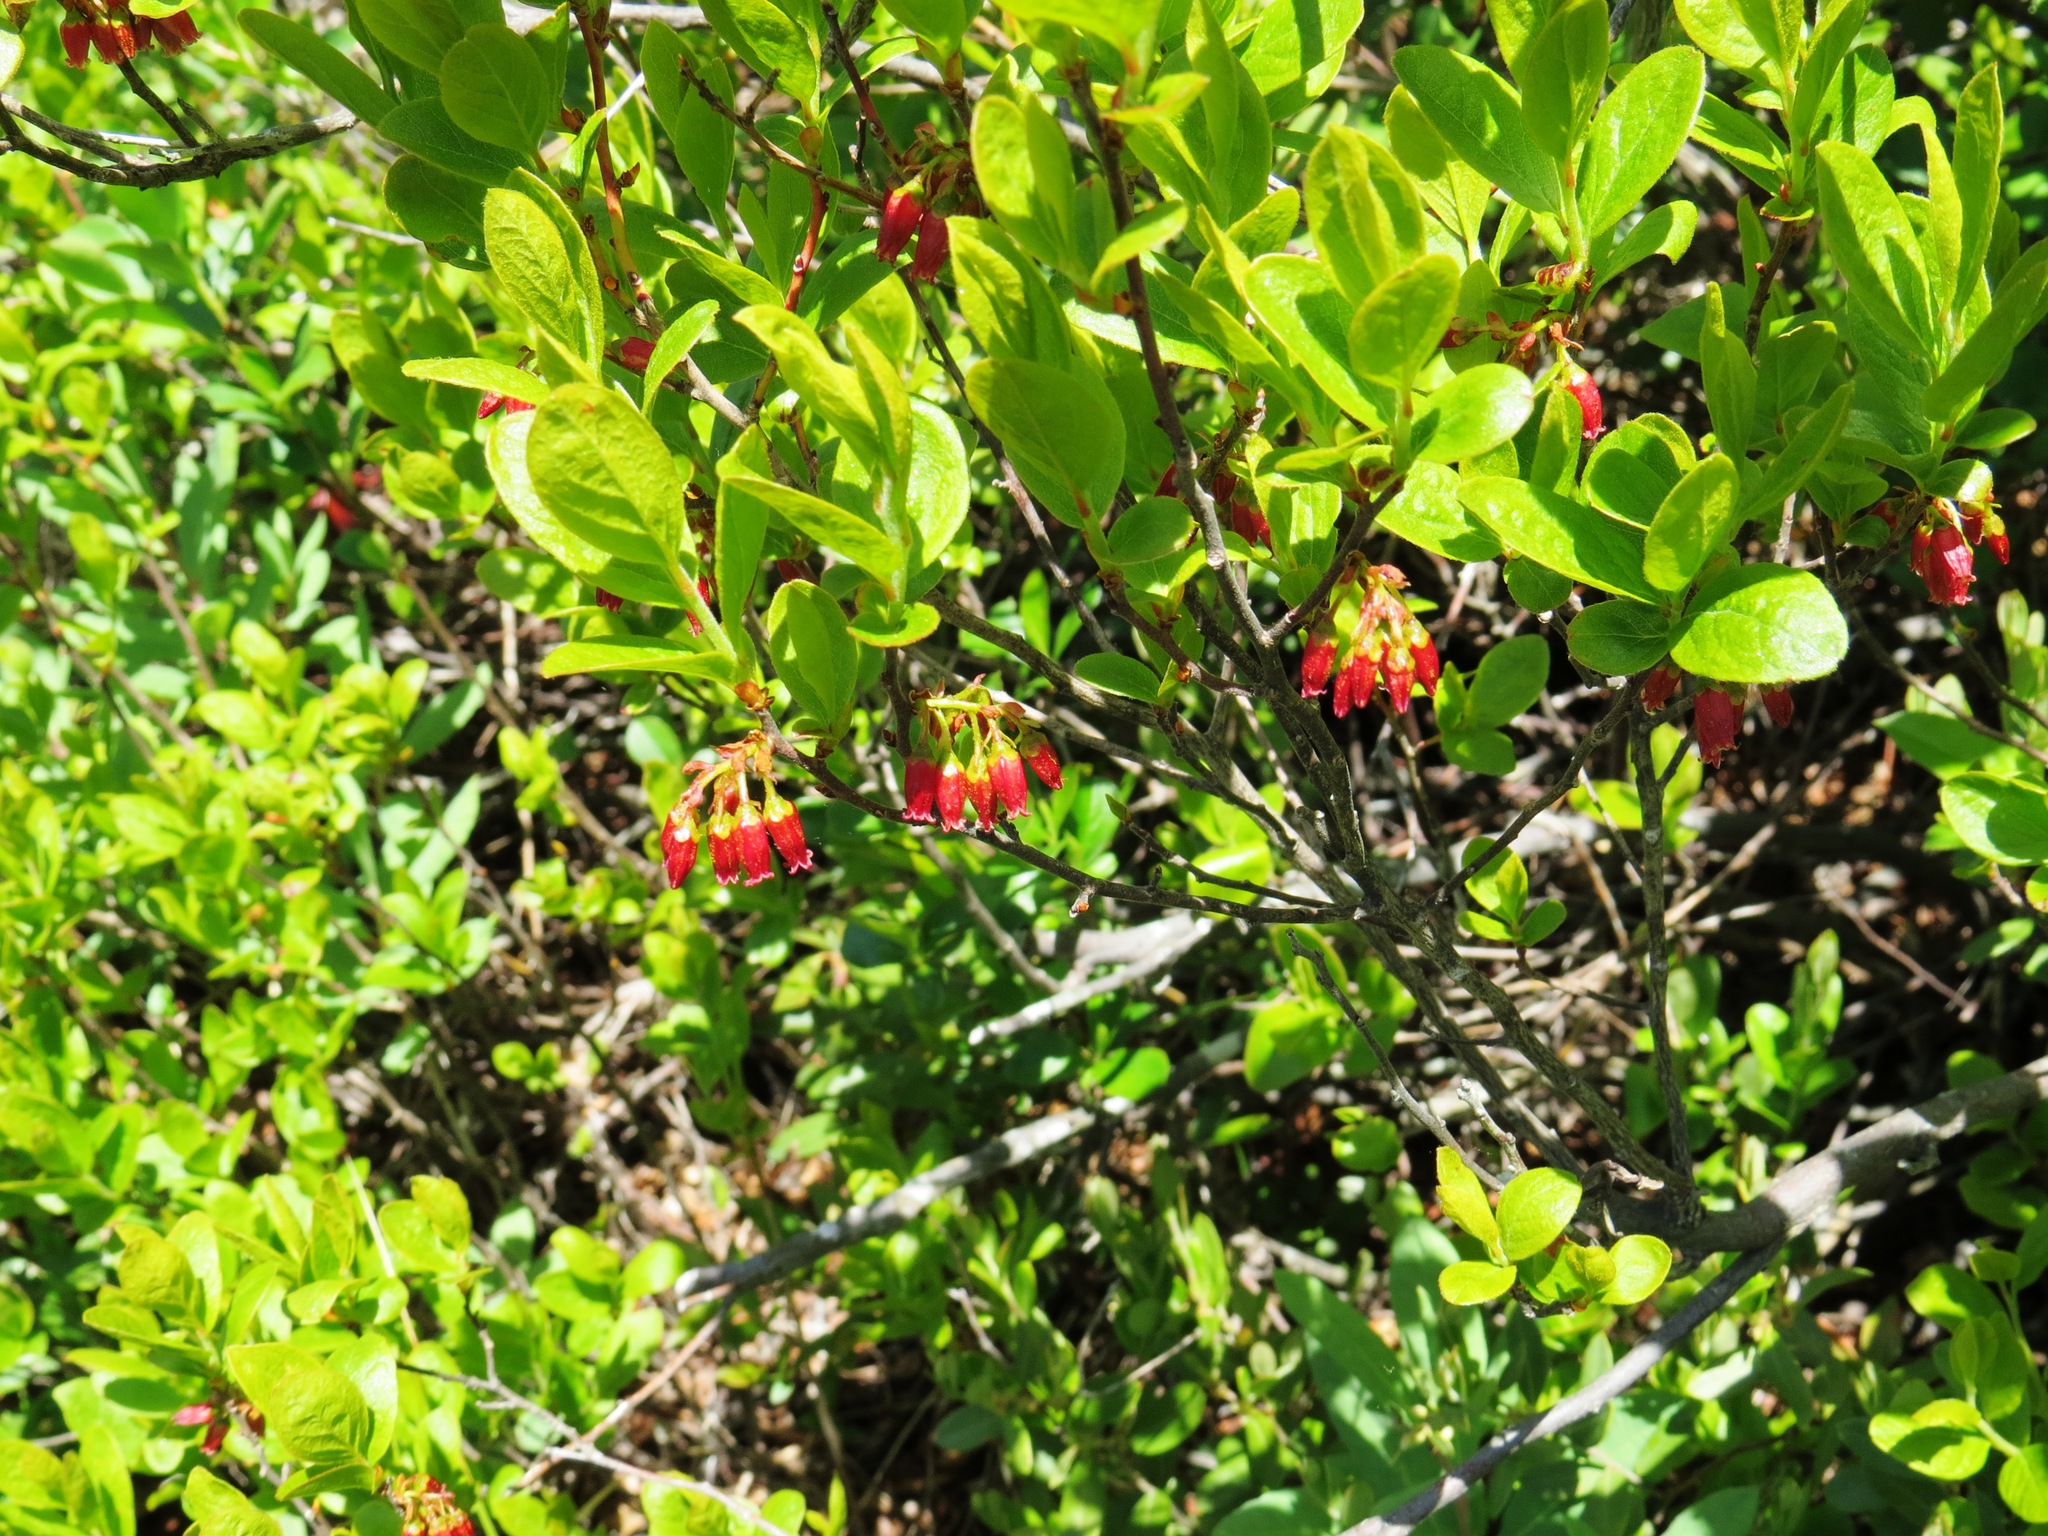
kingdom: Plantae
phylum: Tracheophyta
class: Magnoliopsida
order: Ericales
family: Ericaceae
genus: Gaylussacia
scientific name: Gaylussacia baccata
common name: Black huckleberry
